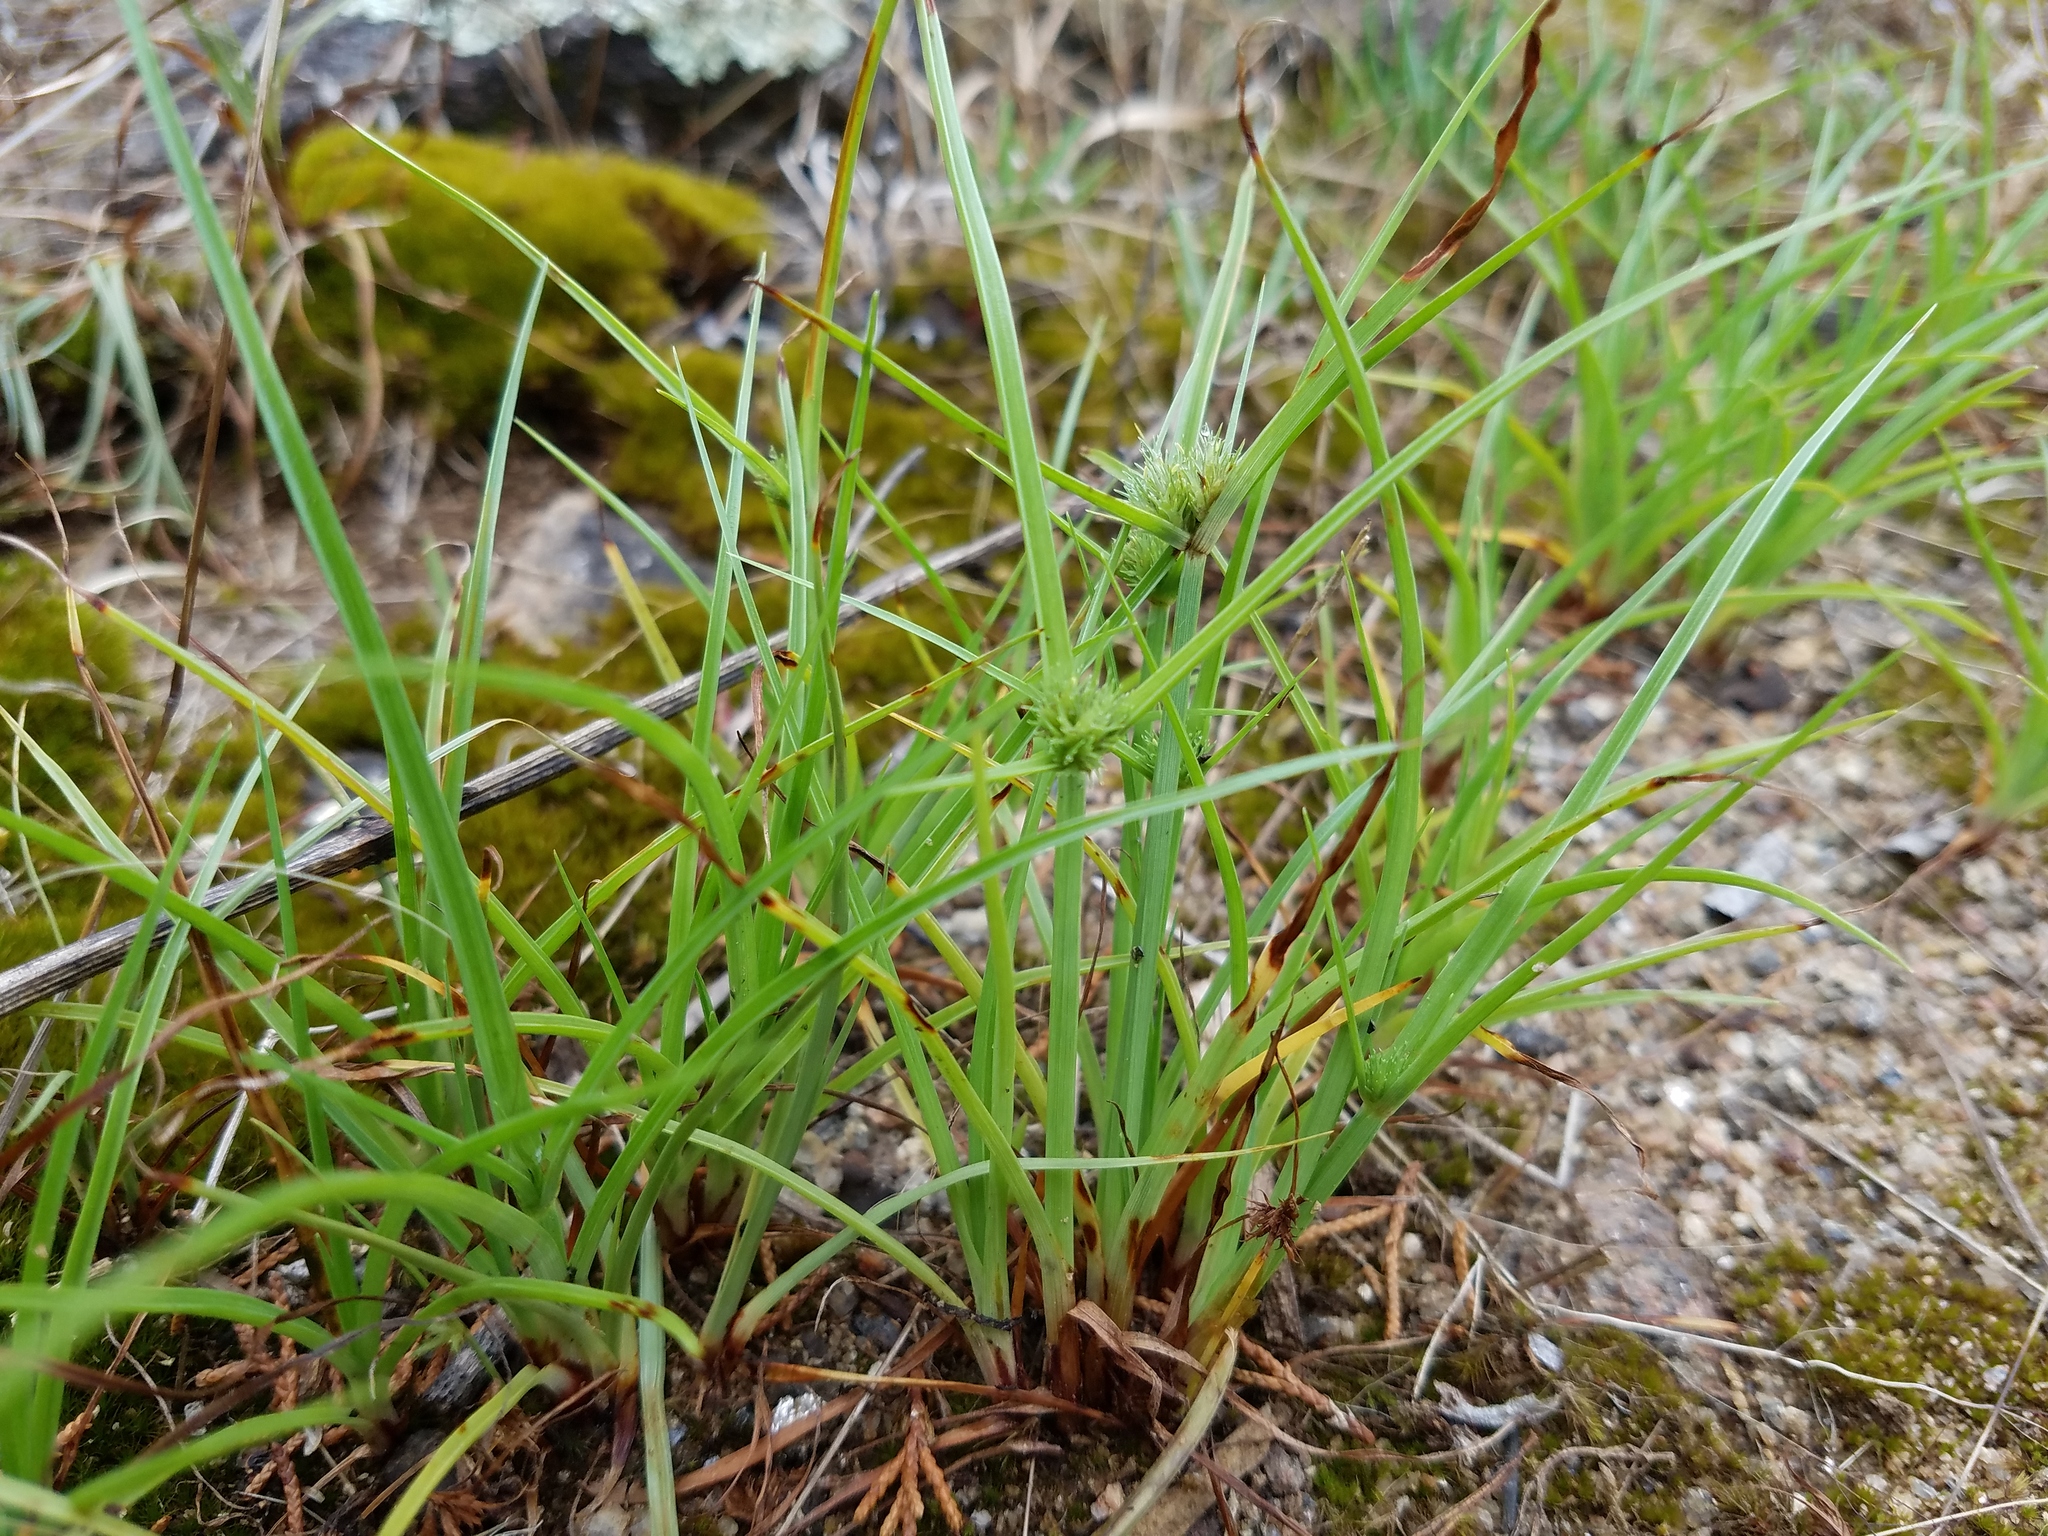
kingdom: Plantae
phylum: Tracheophyta
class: Liliopsida
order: Poales
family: Cyperaceae
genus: Cyperus
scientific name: Cyperus granitophilus
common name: Granite flatsedge
